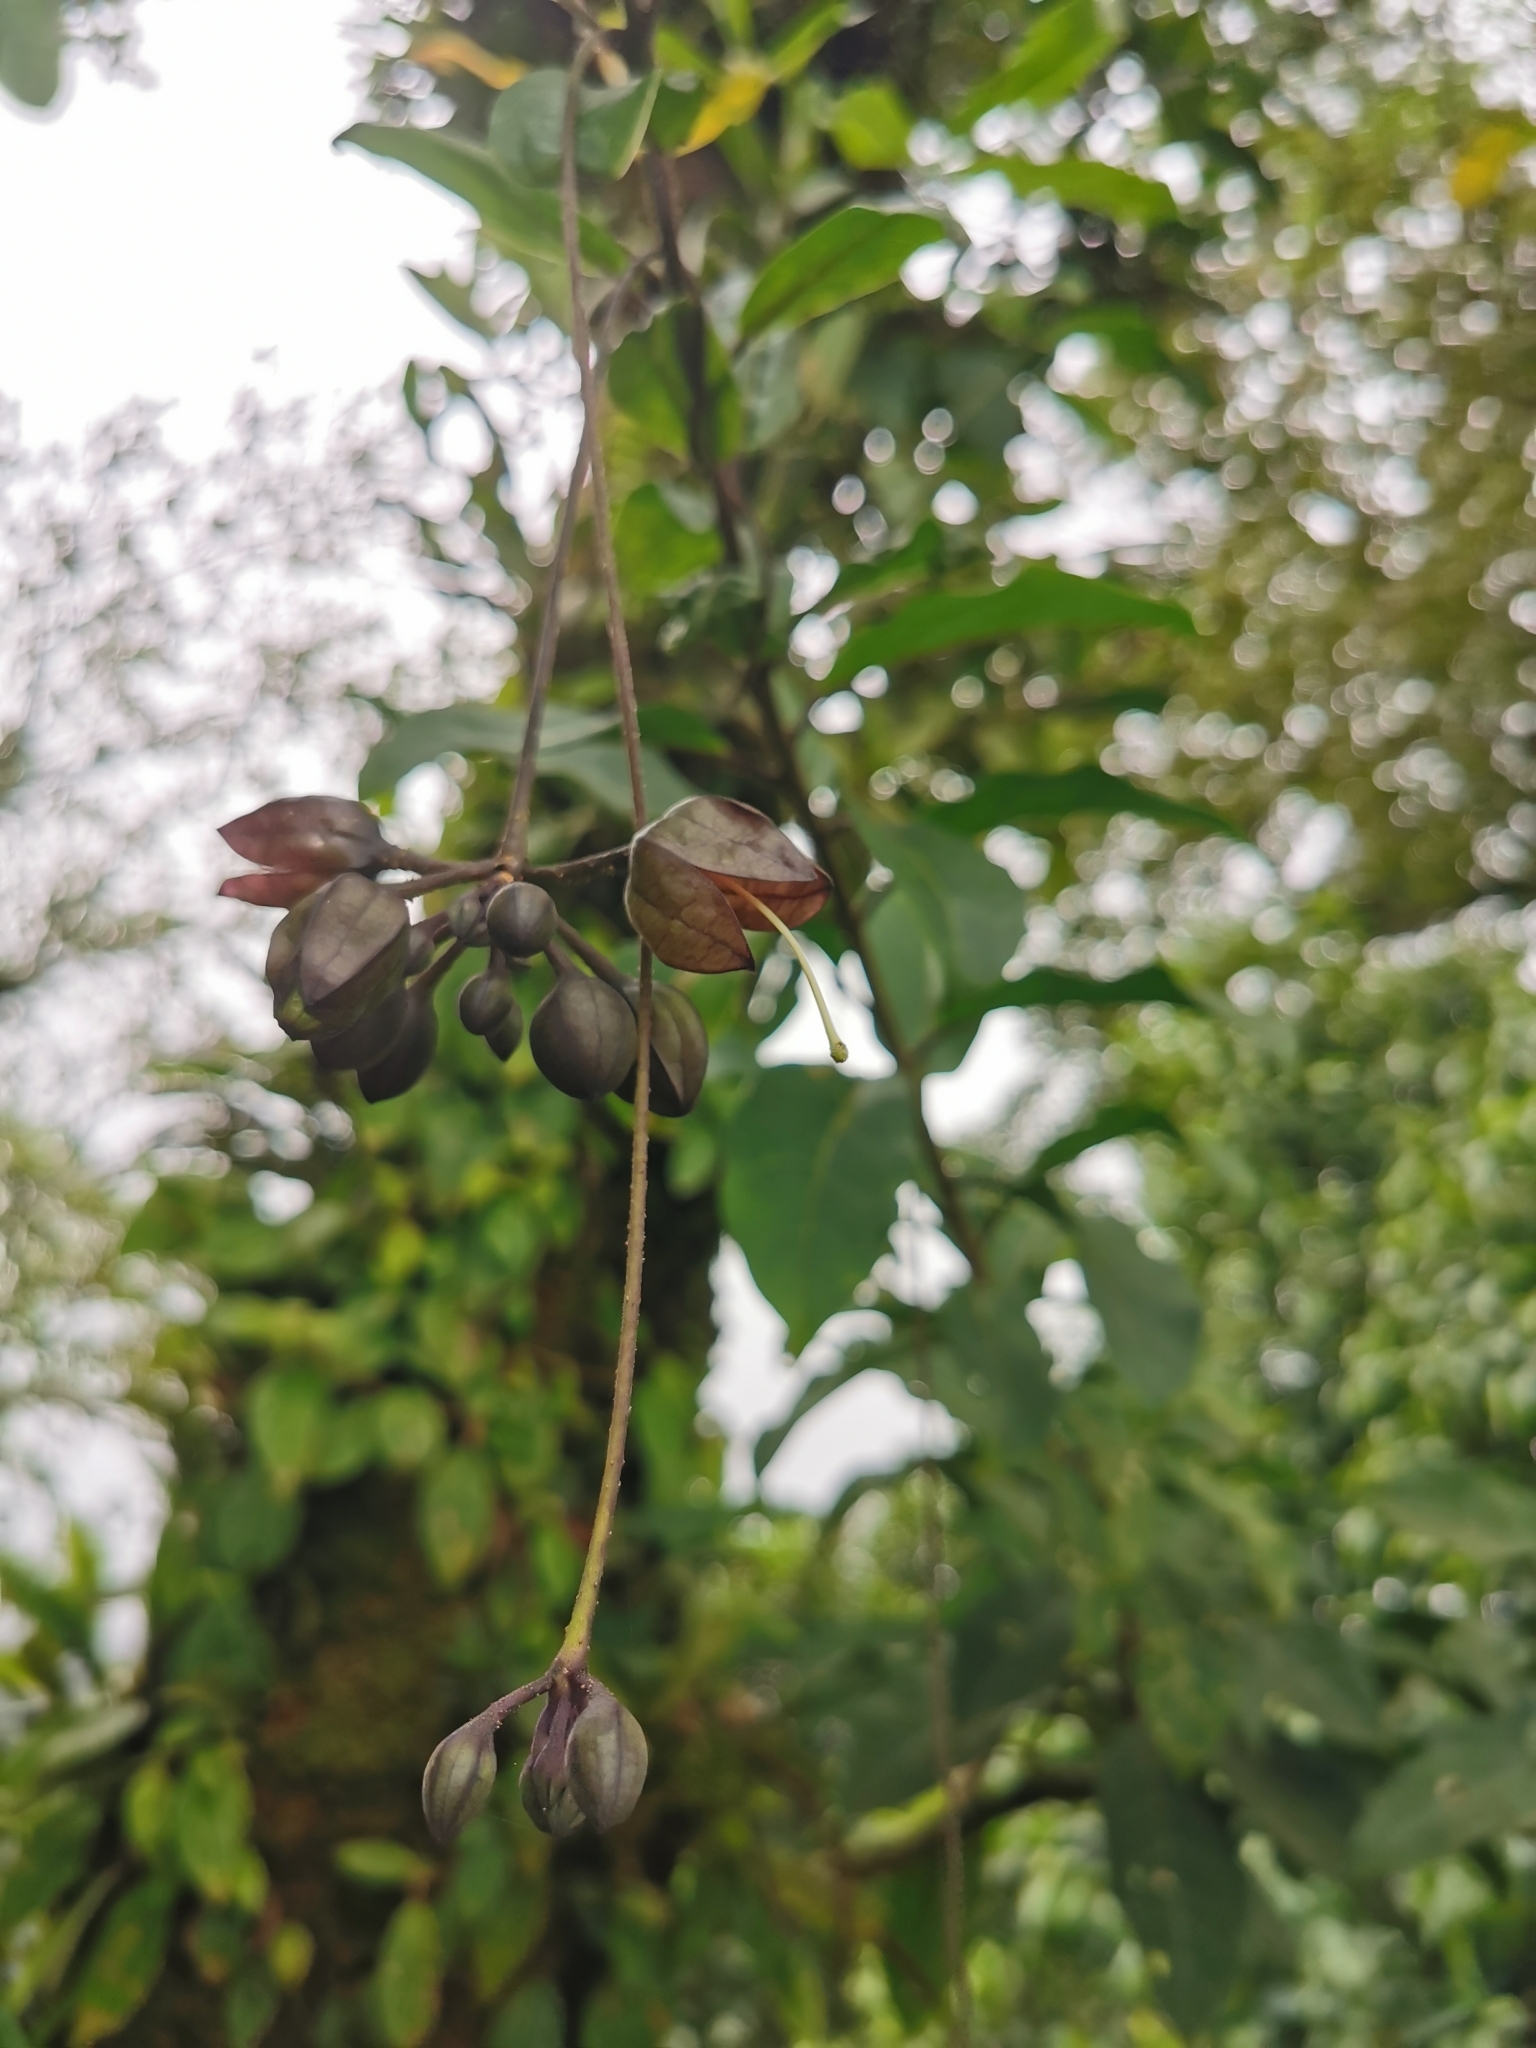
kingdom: Plantae
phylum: Tracheophyta
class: Magnoliopsida
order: Solanales
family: Solanaceae
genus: Merinthopodium
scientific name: Merinthopodium neuranthum
